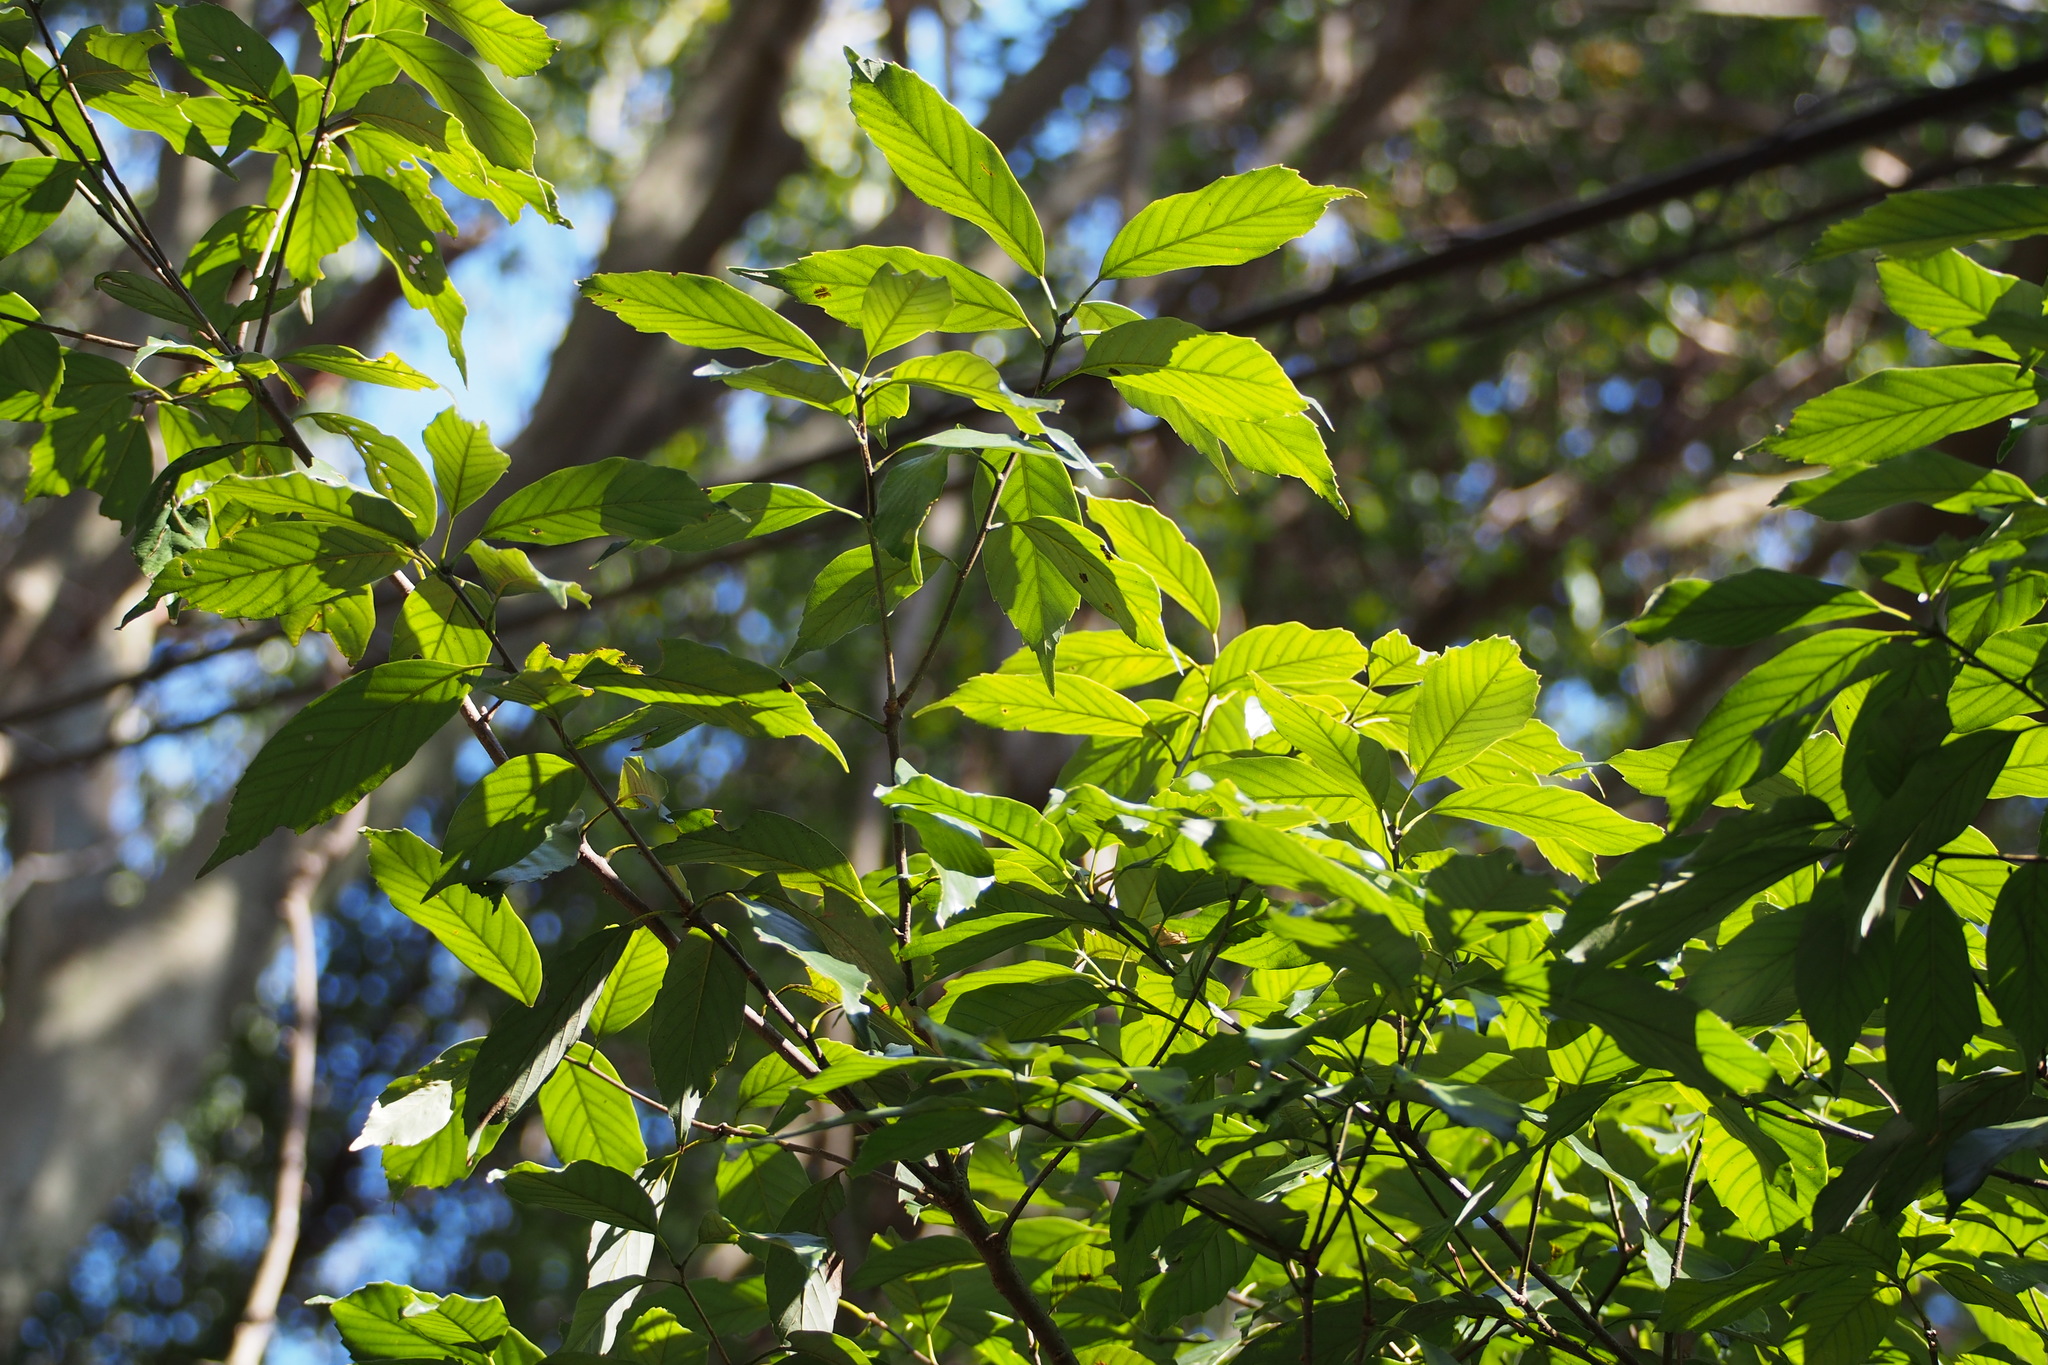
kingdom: Plantae
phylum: Tracheophyta
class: Magnoliopsida
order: Fagales
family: Fagaceae
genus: Quercus
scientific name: Quercus glauca
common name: Ring-cup oak
